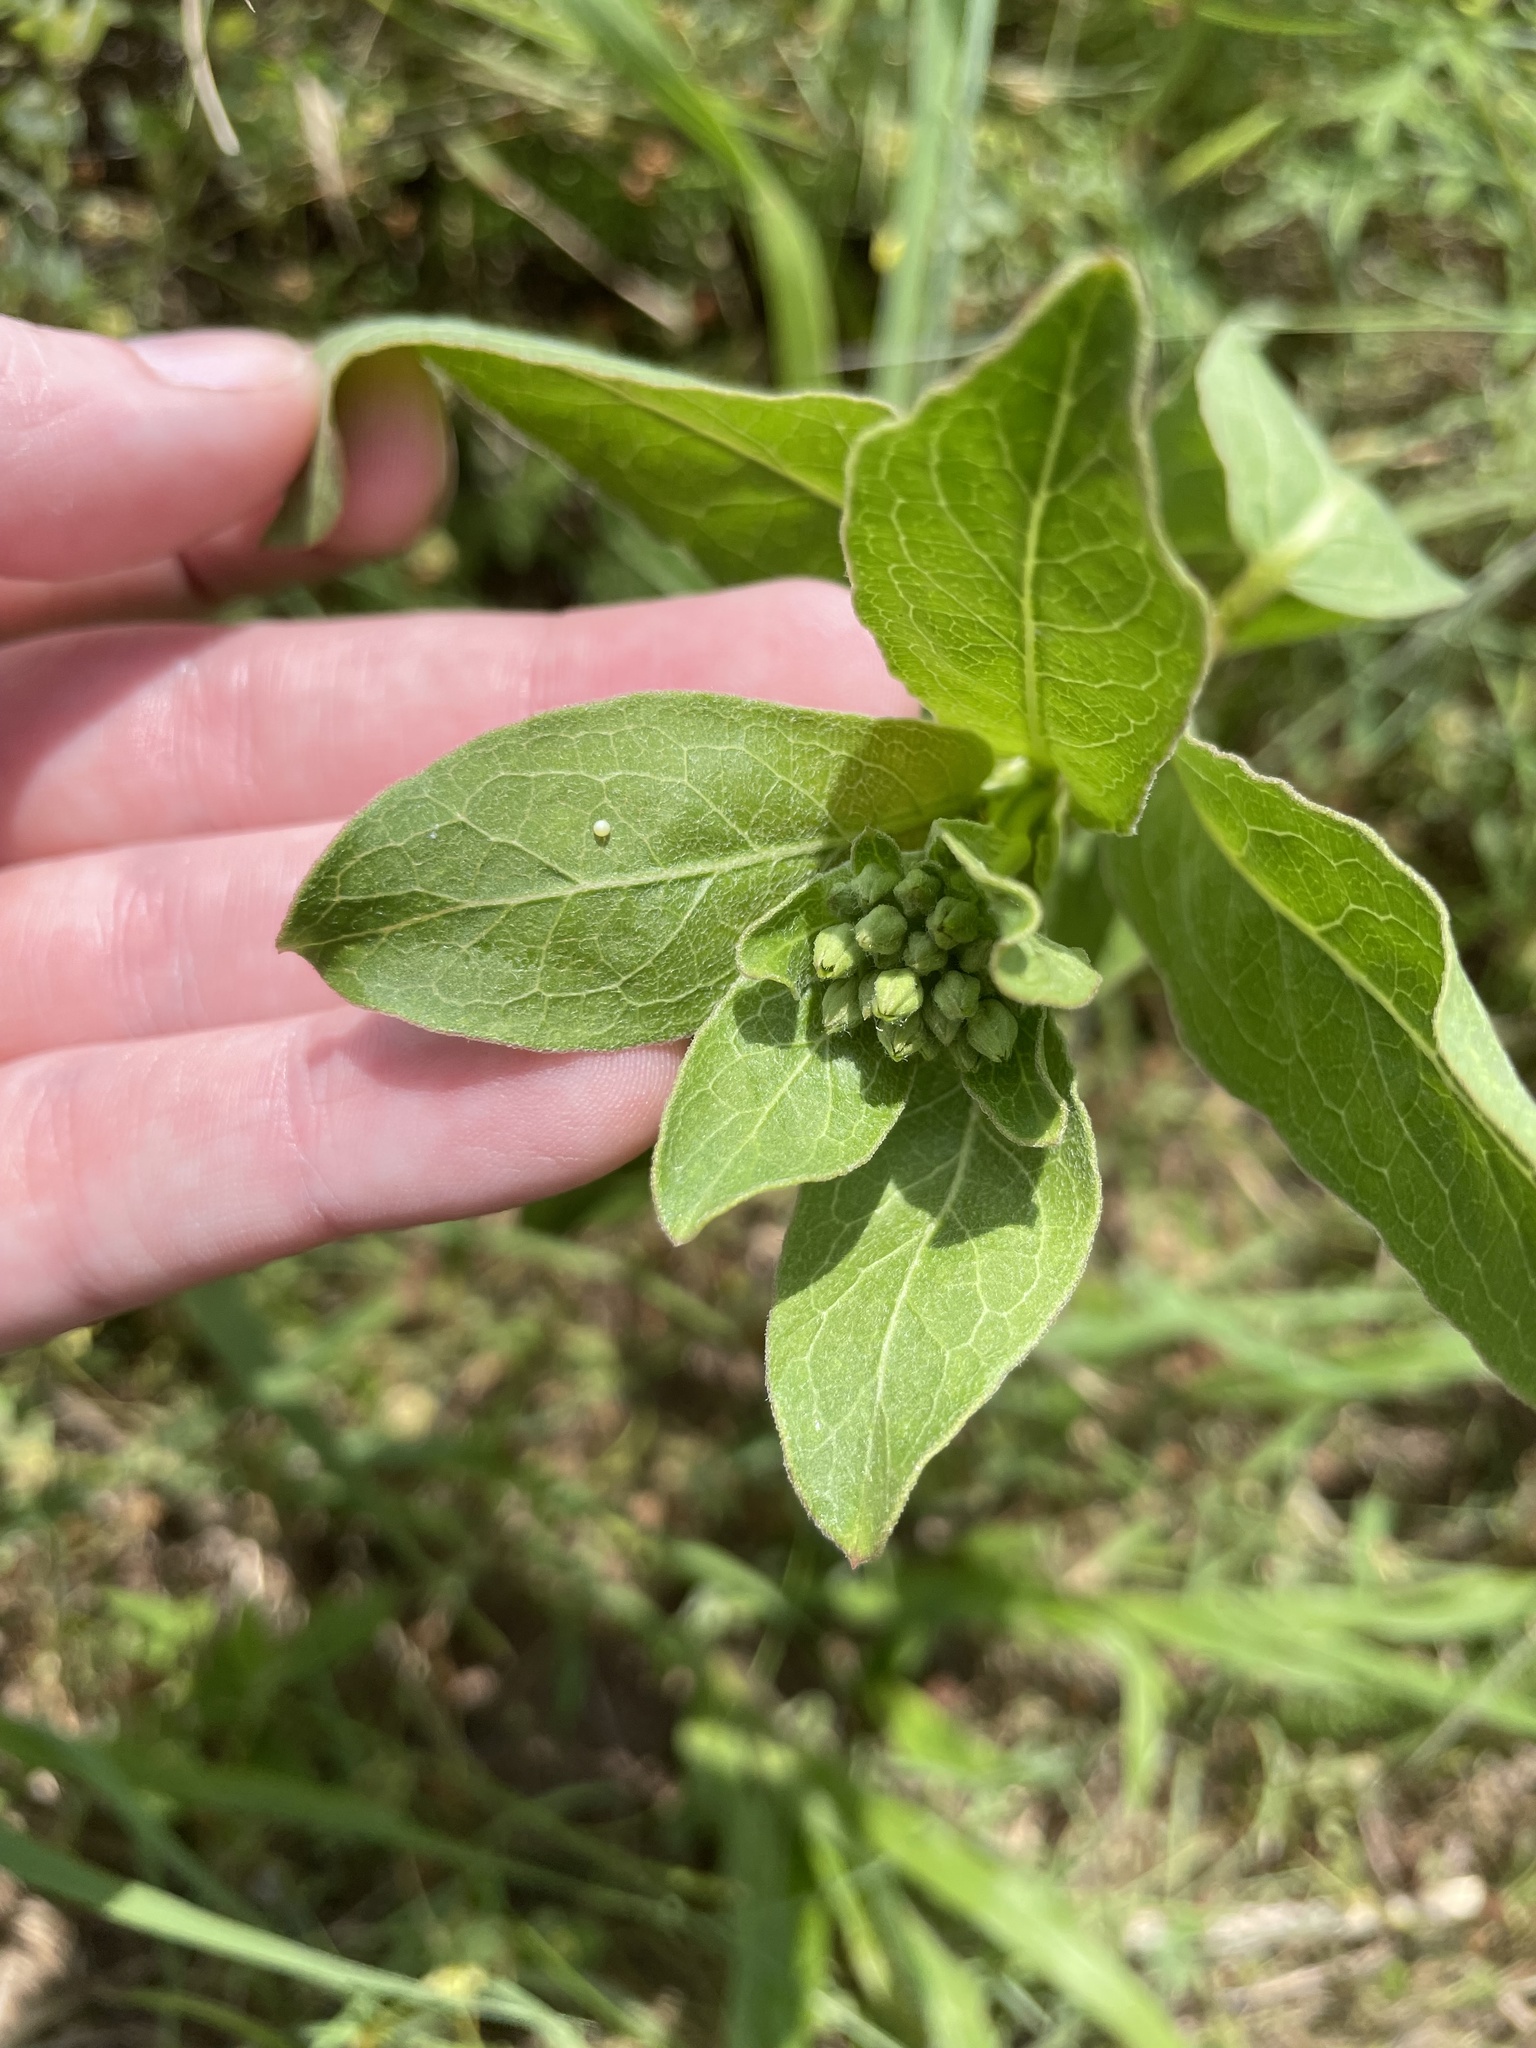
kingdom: Animalia
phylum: Arthropoda
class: Insecta
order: Lepidoptera
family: Nymphalidae
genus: Danaus
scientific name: Danaus plexippus
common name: Monarch
